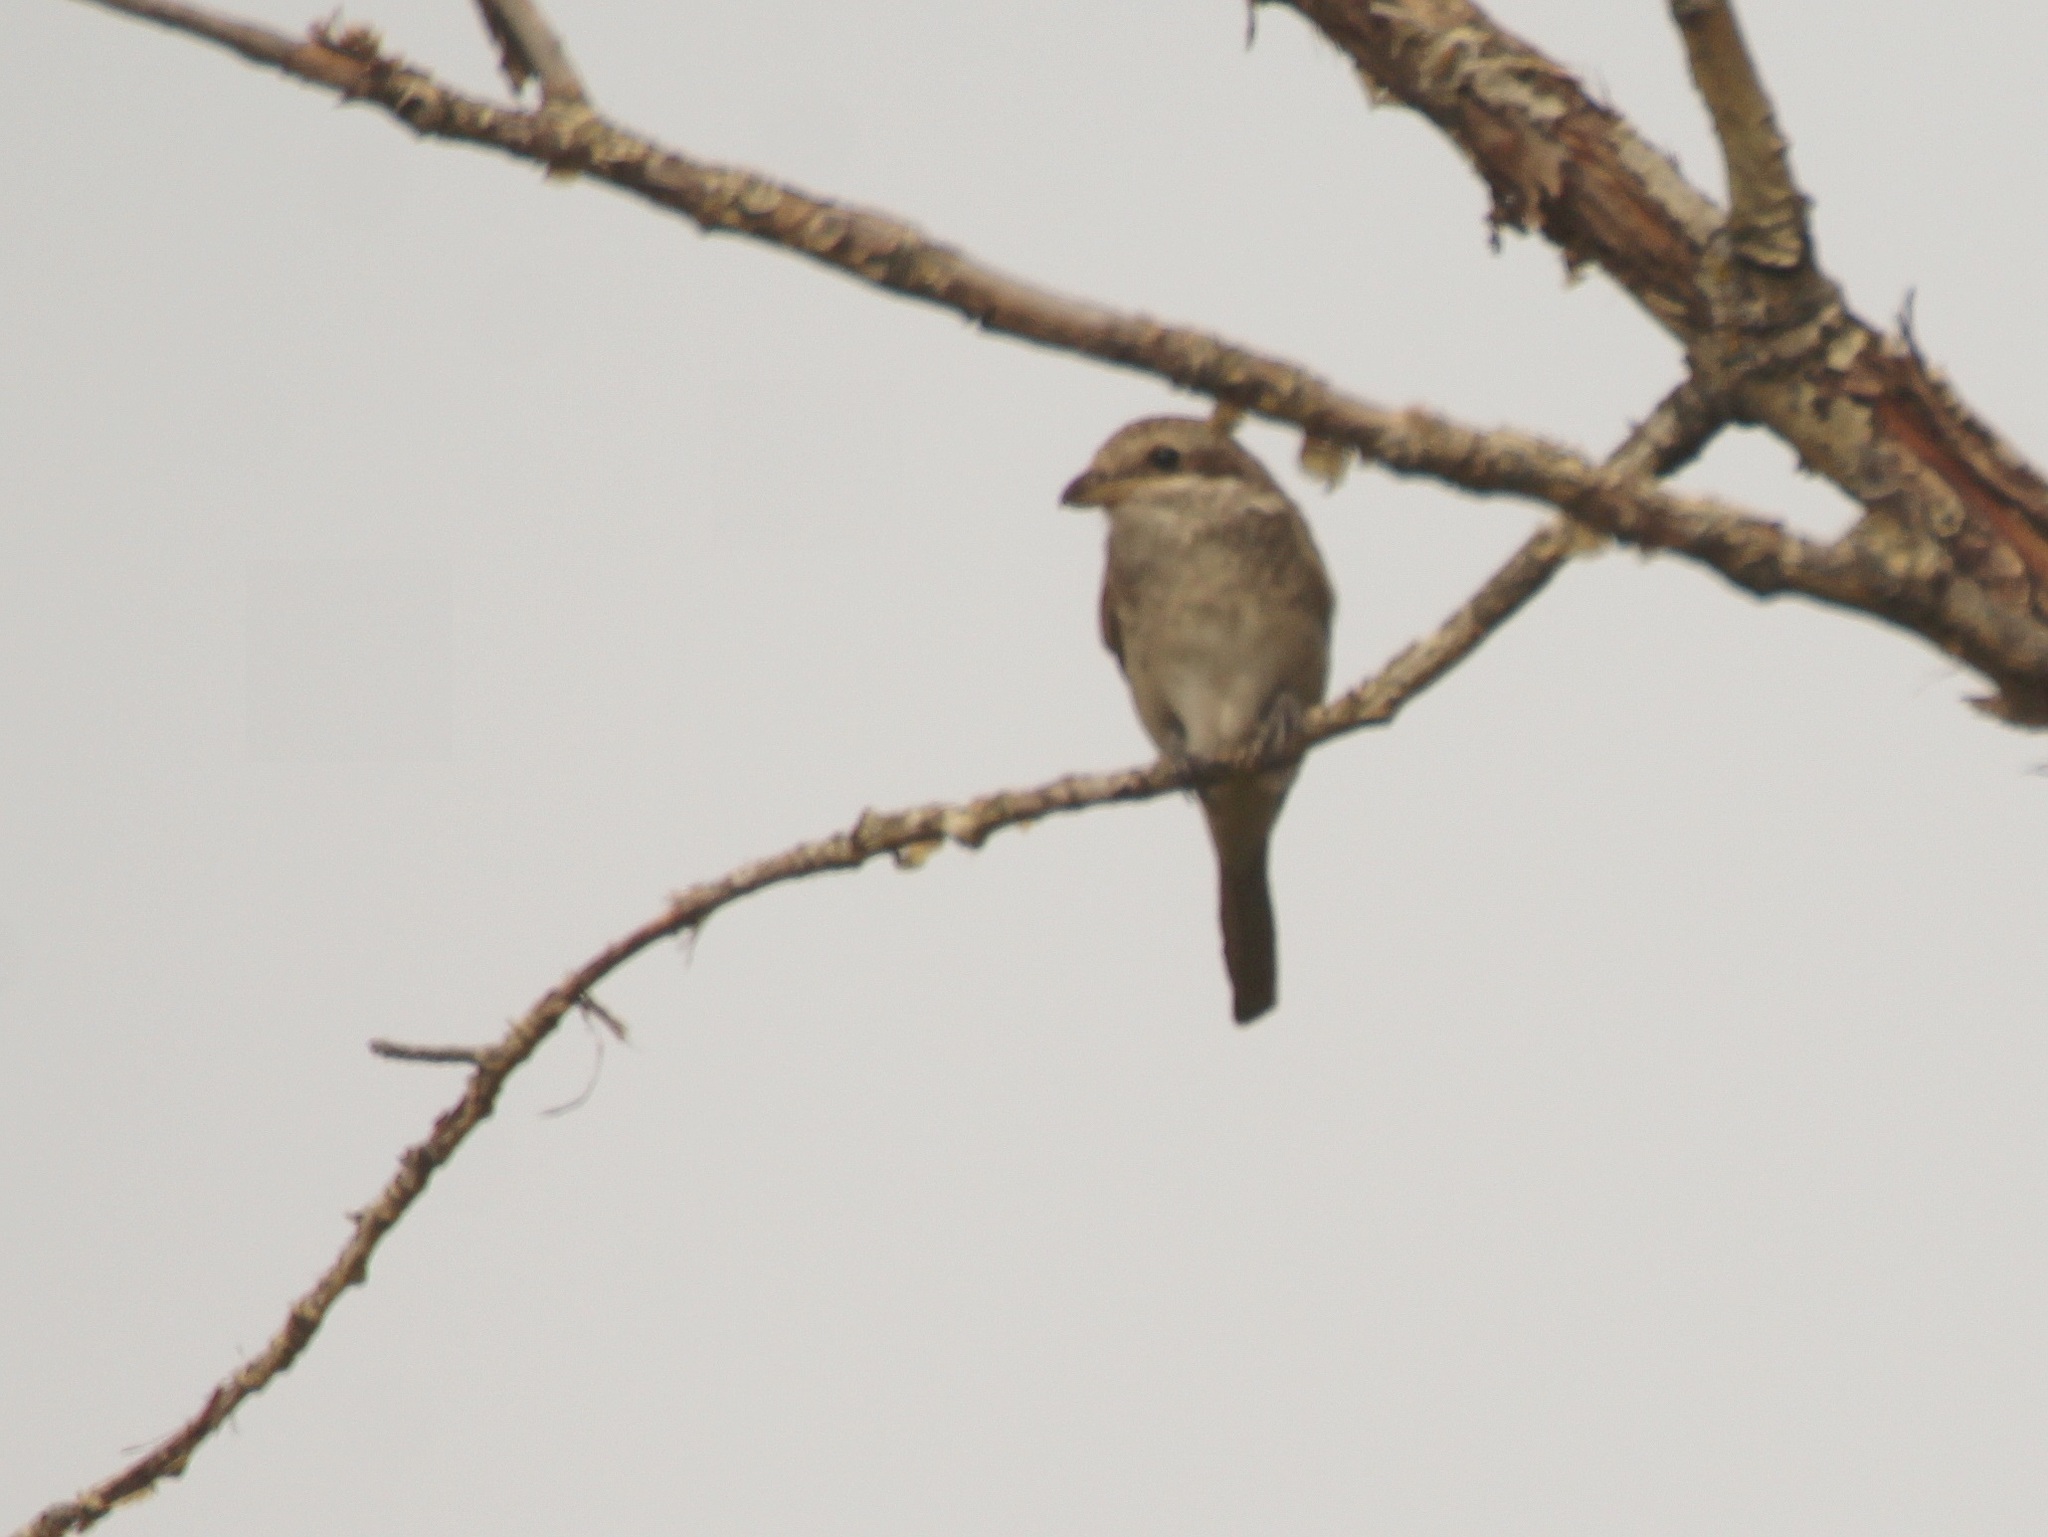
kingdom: Animalia
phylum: Chordata
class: Aves
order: Passeriformes
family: Laniidae
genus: Lanius
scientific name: Lanius collurio
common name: Red-backed shrike
